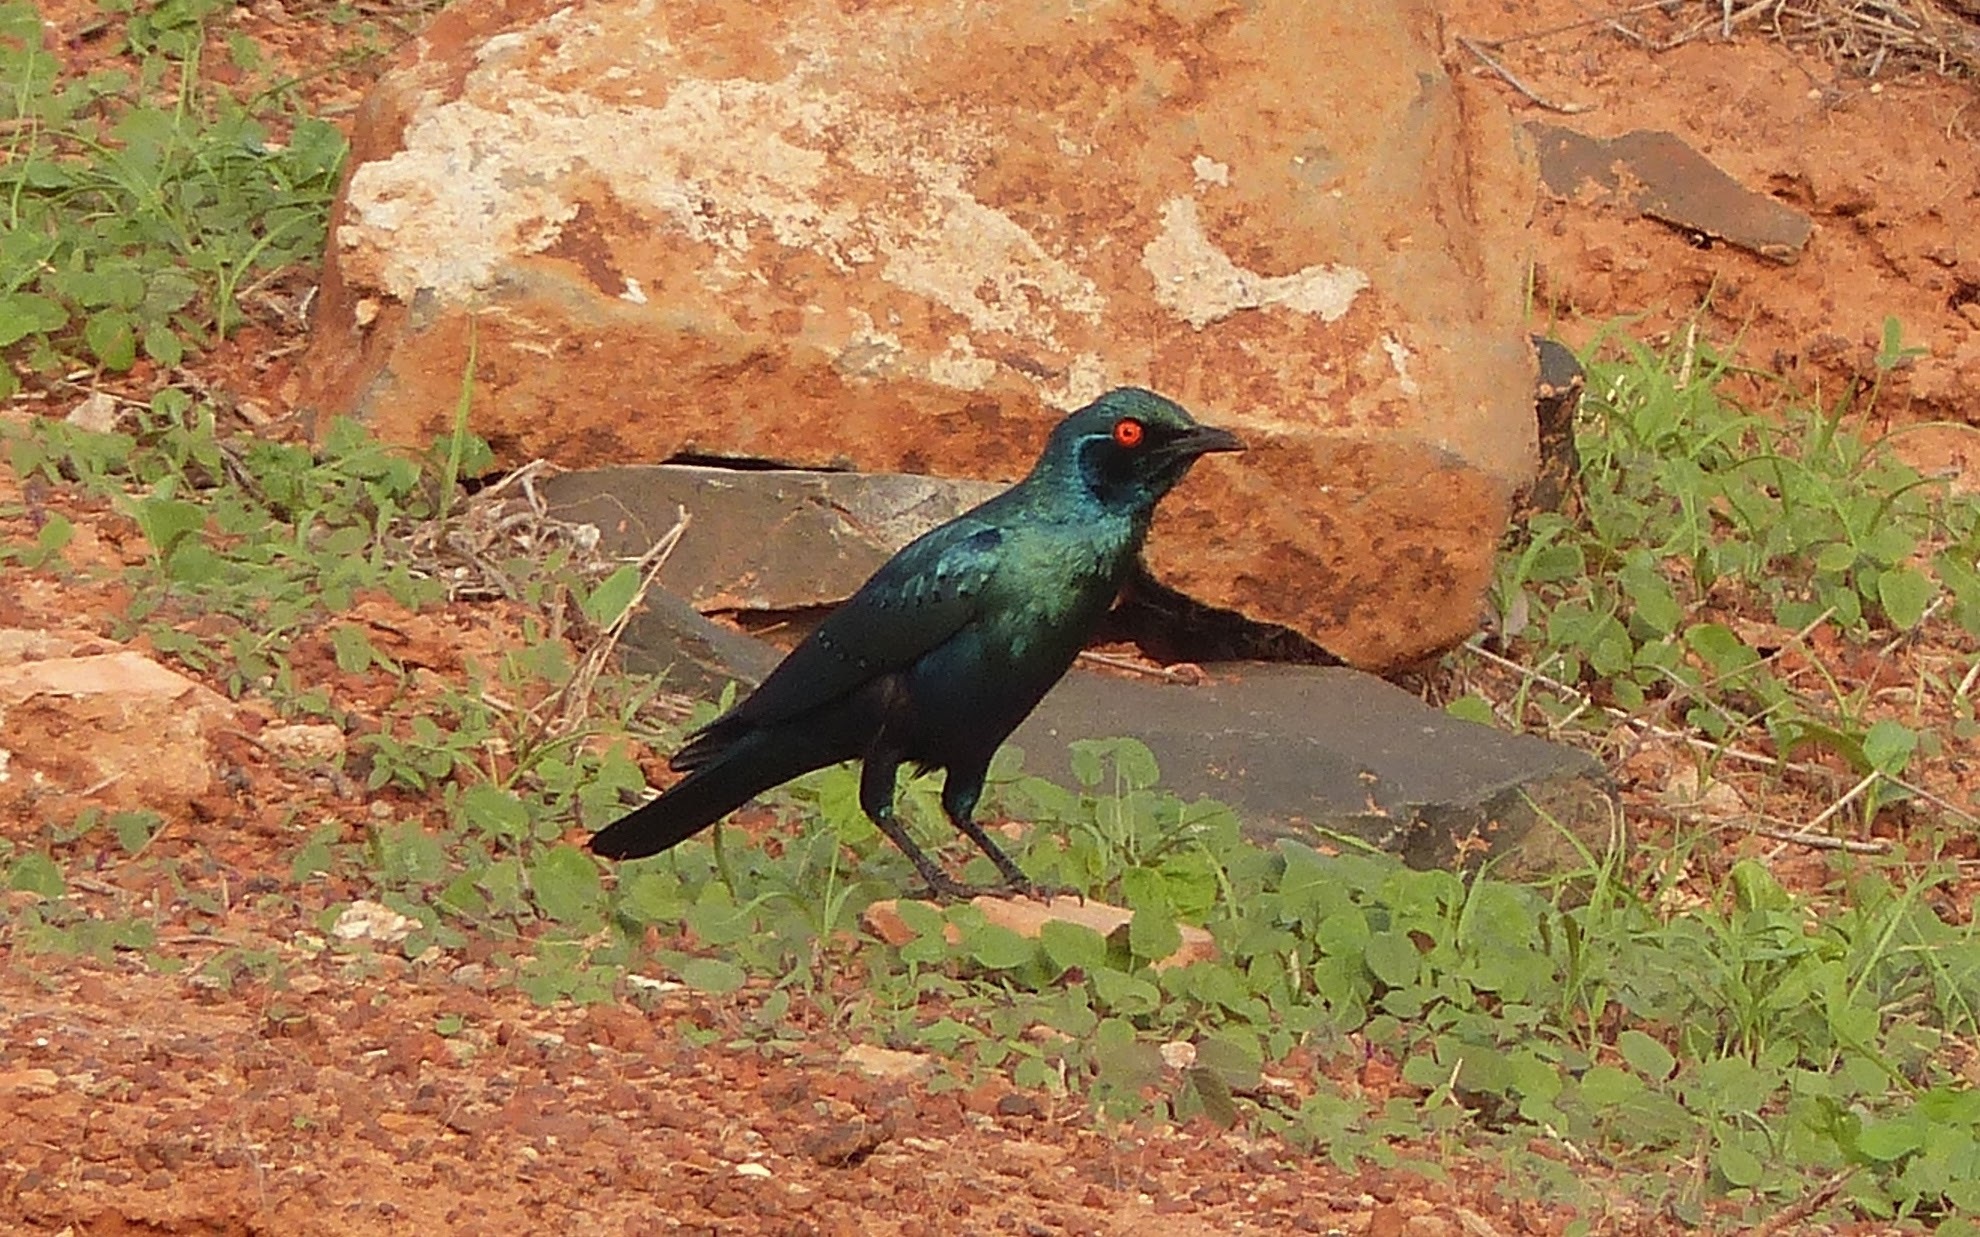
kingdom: Animalia
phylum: Chordata
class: Aves
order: Passeriformes
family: Sturnidae
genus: Lamprotornis
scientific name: Lamprotornis chalybaeus
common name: Greater blue-eared starling
